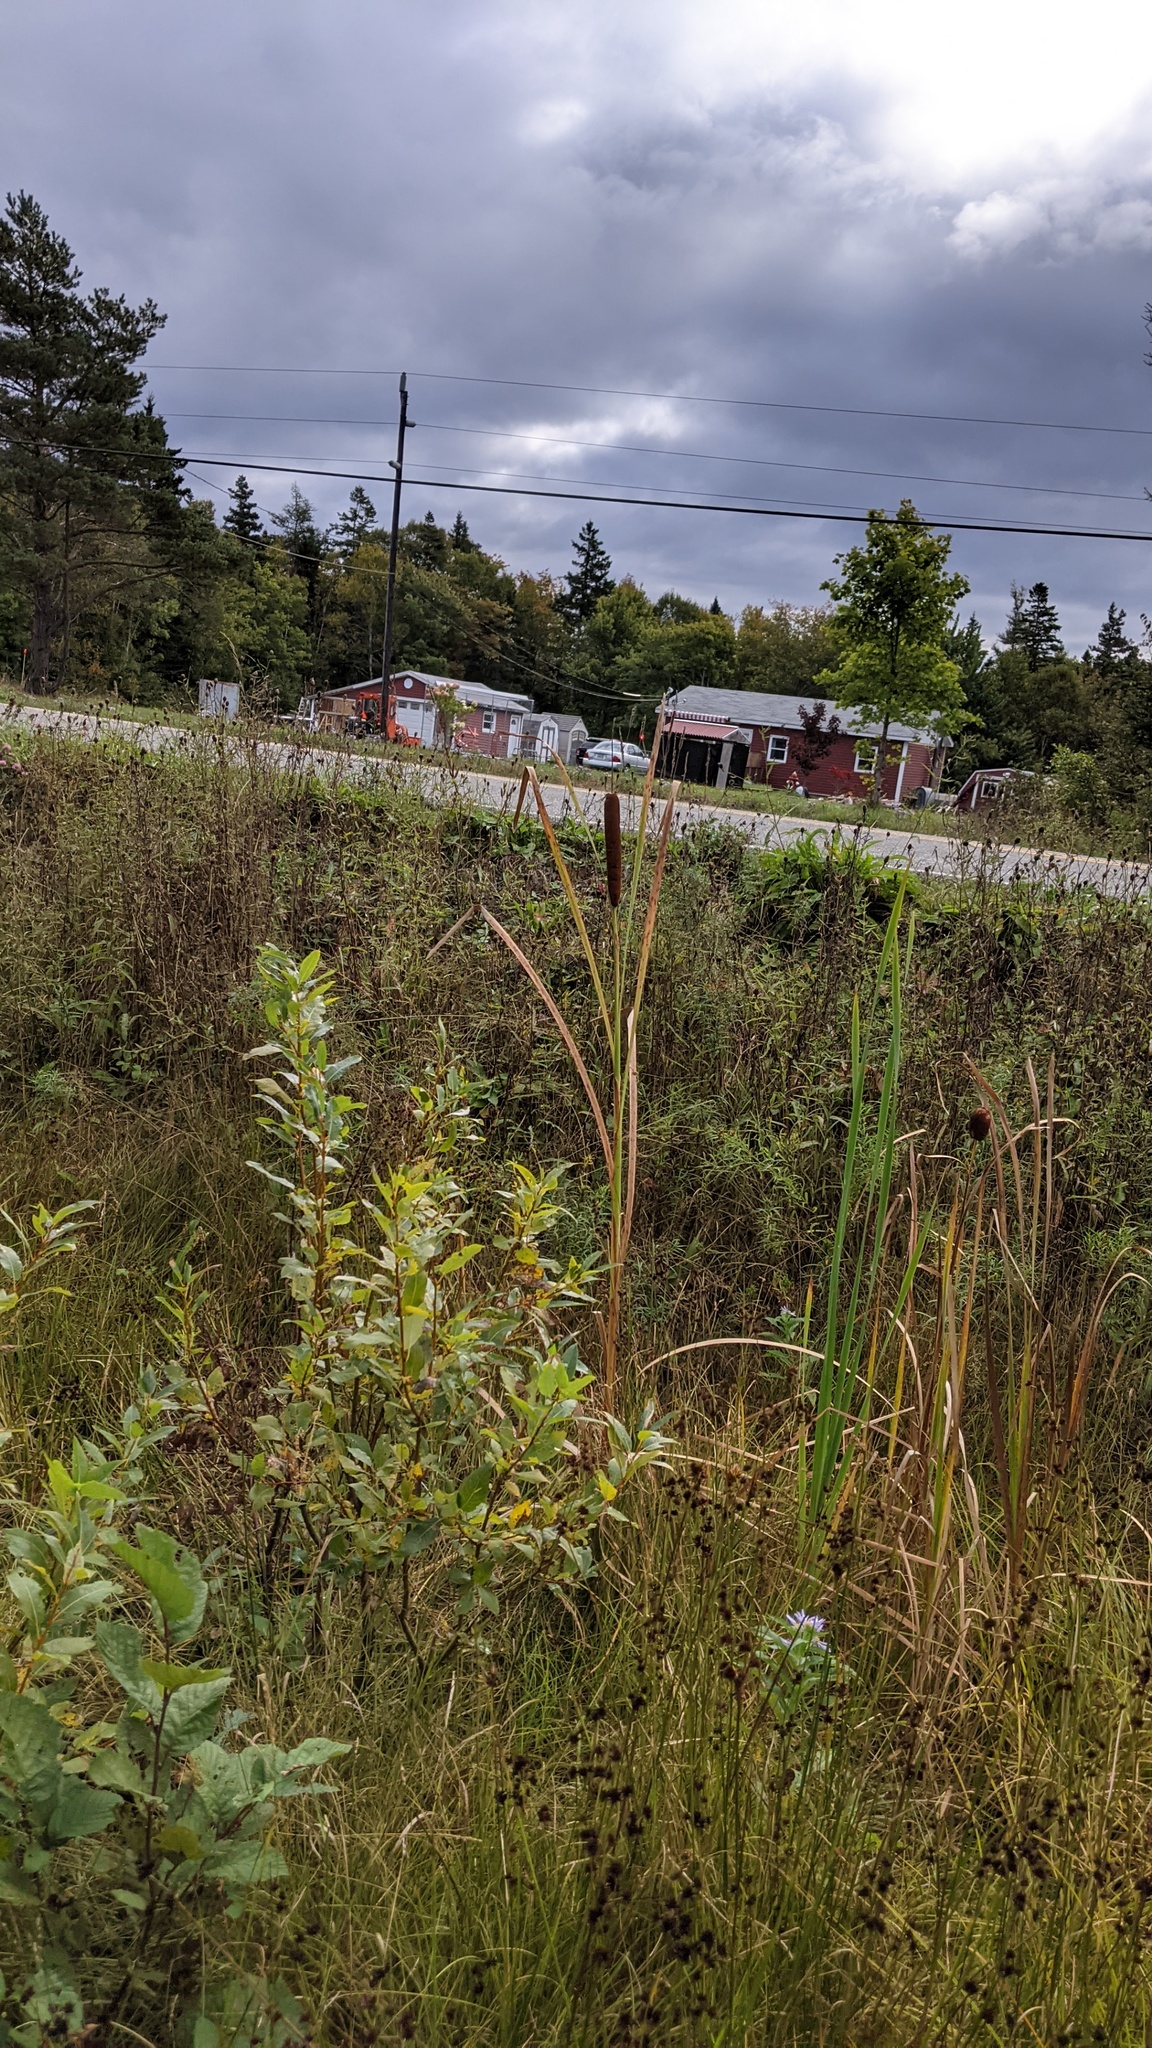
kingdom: Plantae
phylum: Tracheophyta
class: Liliopsida
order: Poales
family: Typhaceae
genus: Typha
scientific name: Typha latifolia
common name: Broadleaf cattail
